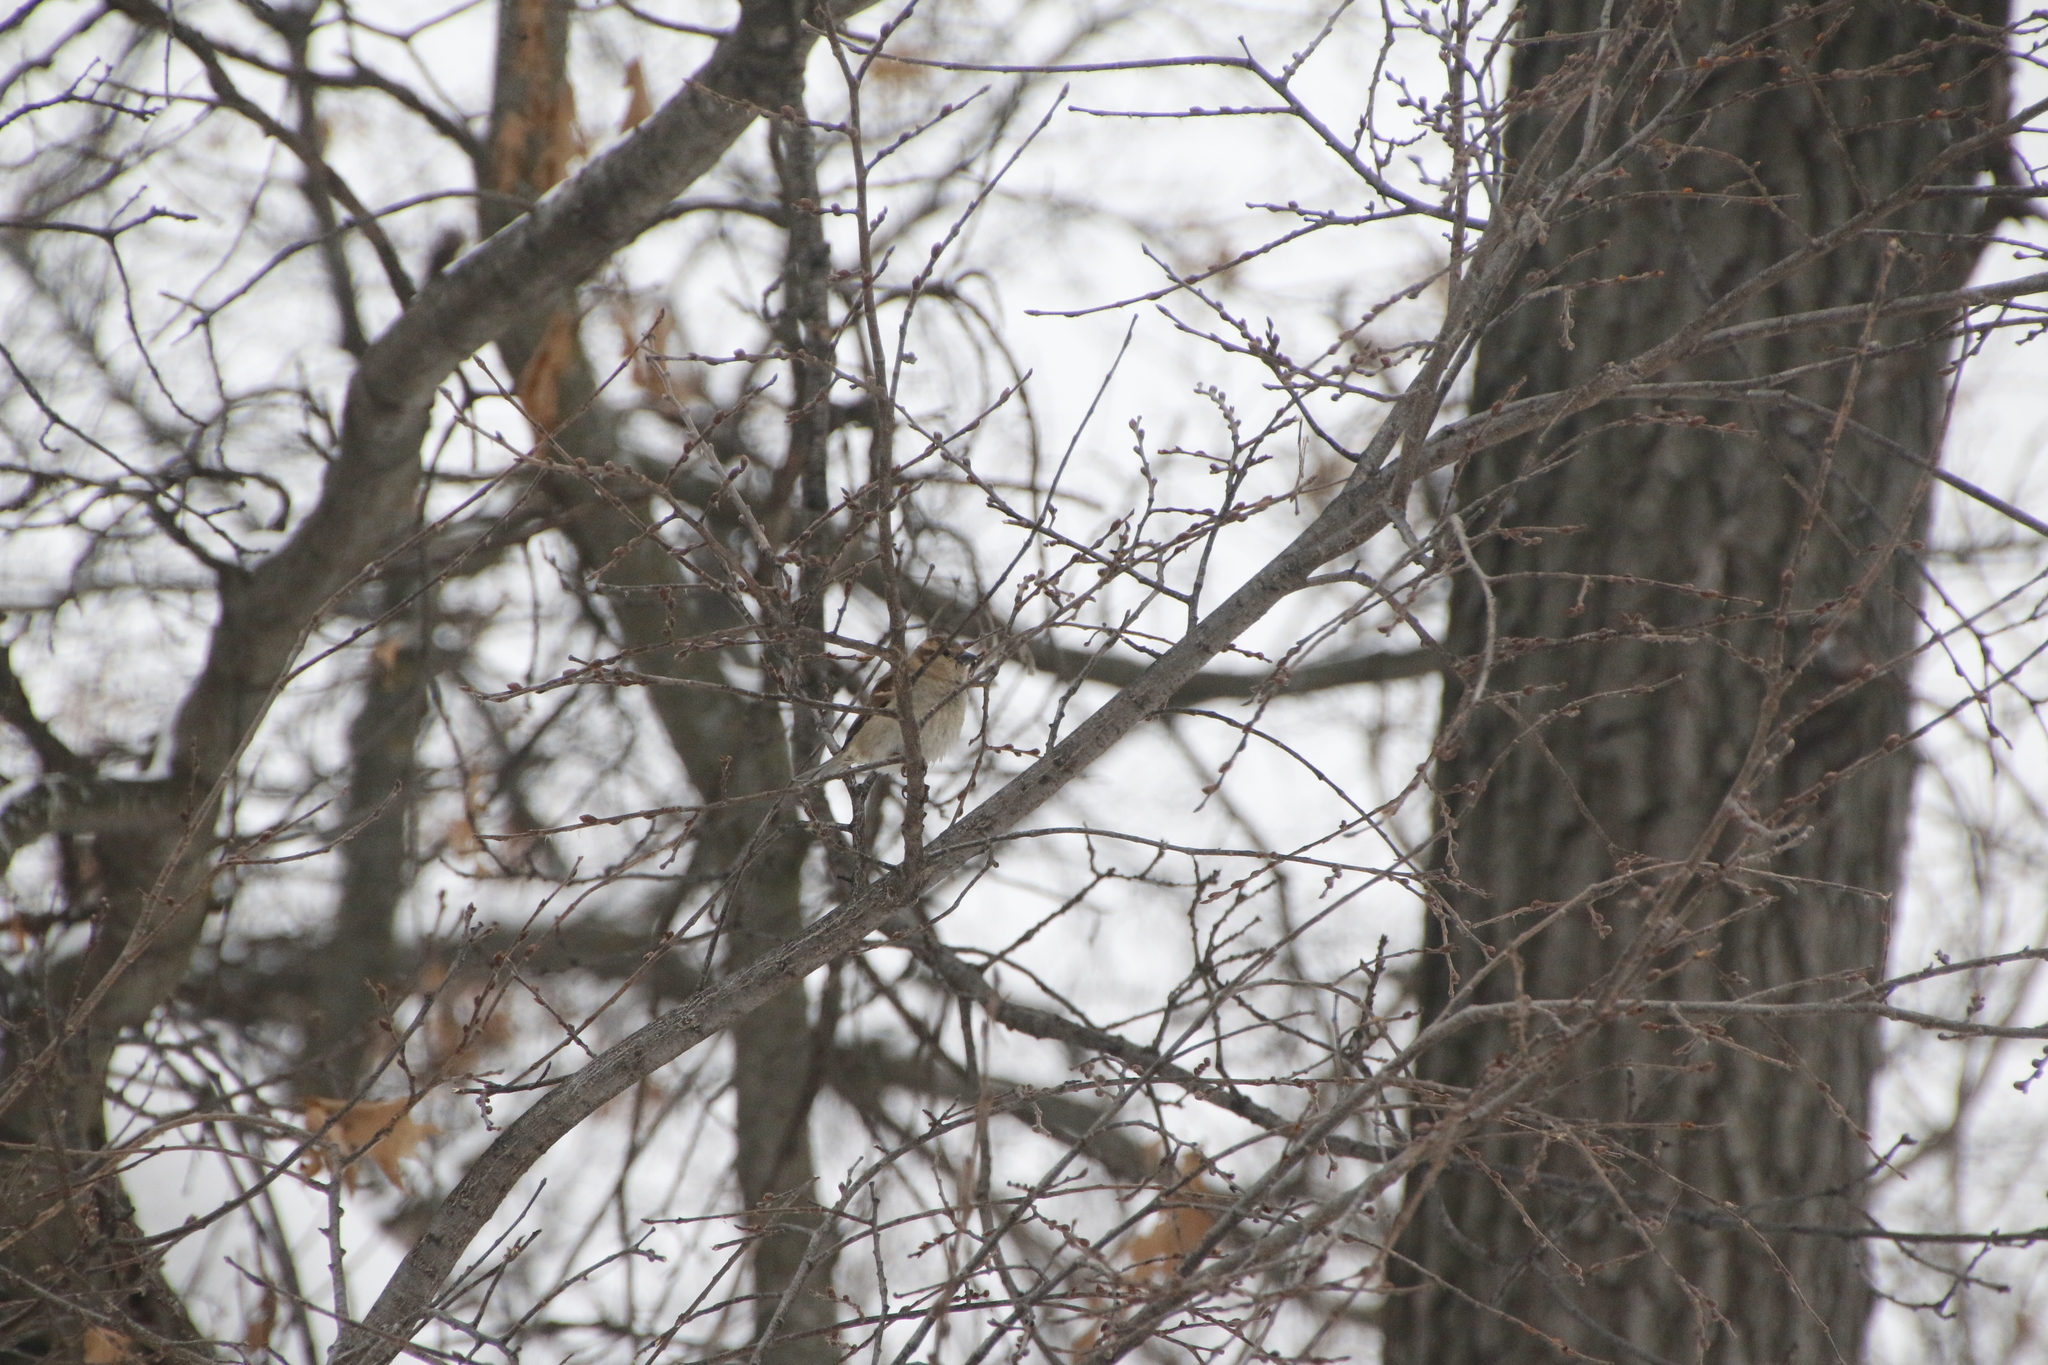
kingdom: Animalia
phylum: Chordata
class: Aves
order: Passeriformes
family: Passeridae
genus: Passer
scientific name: Passer domesticus
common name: House sparrow
